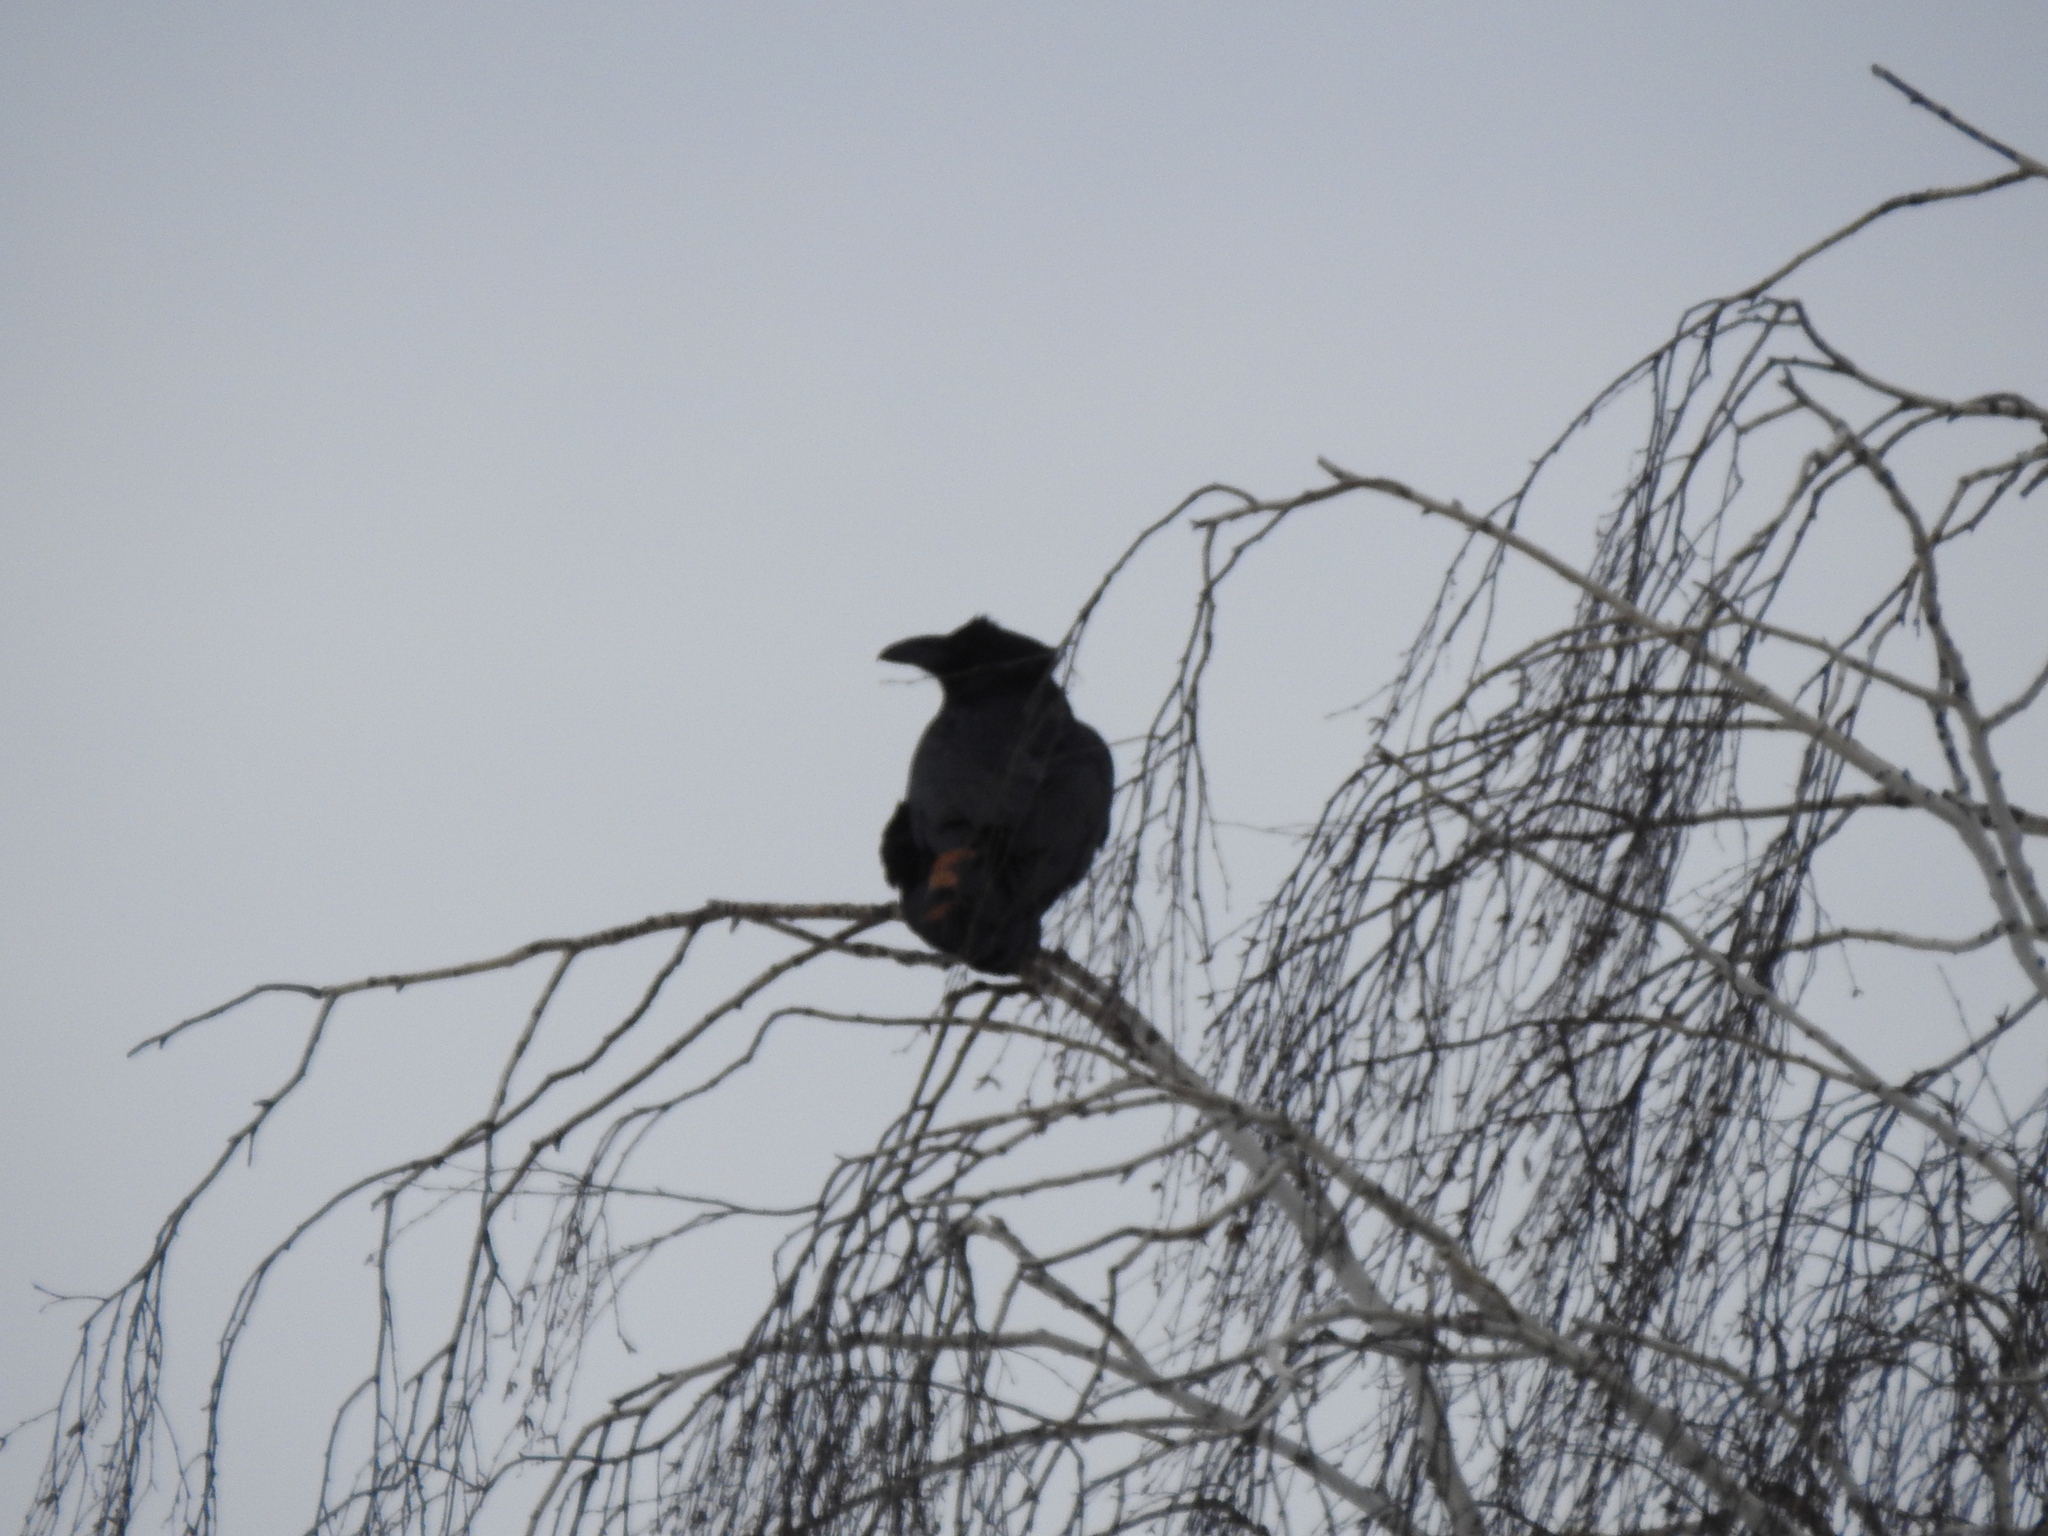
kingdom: Animalia
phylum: Chordata
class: Aves
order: Passeriformes
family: Corvidae
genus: Corvus
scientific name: Corvus corax
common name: Common raven
